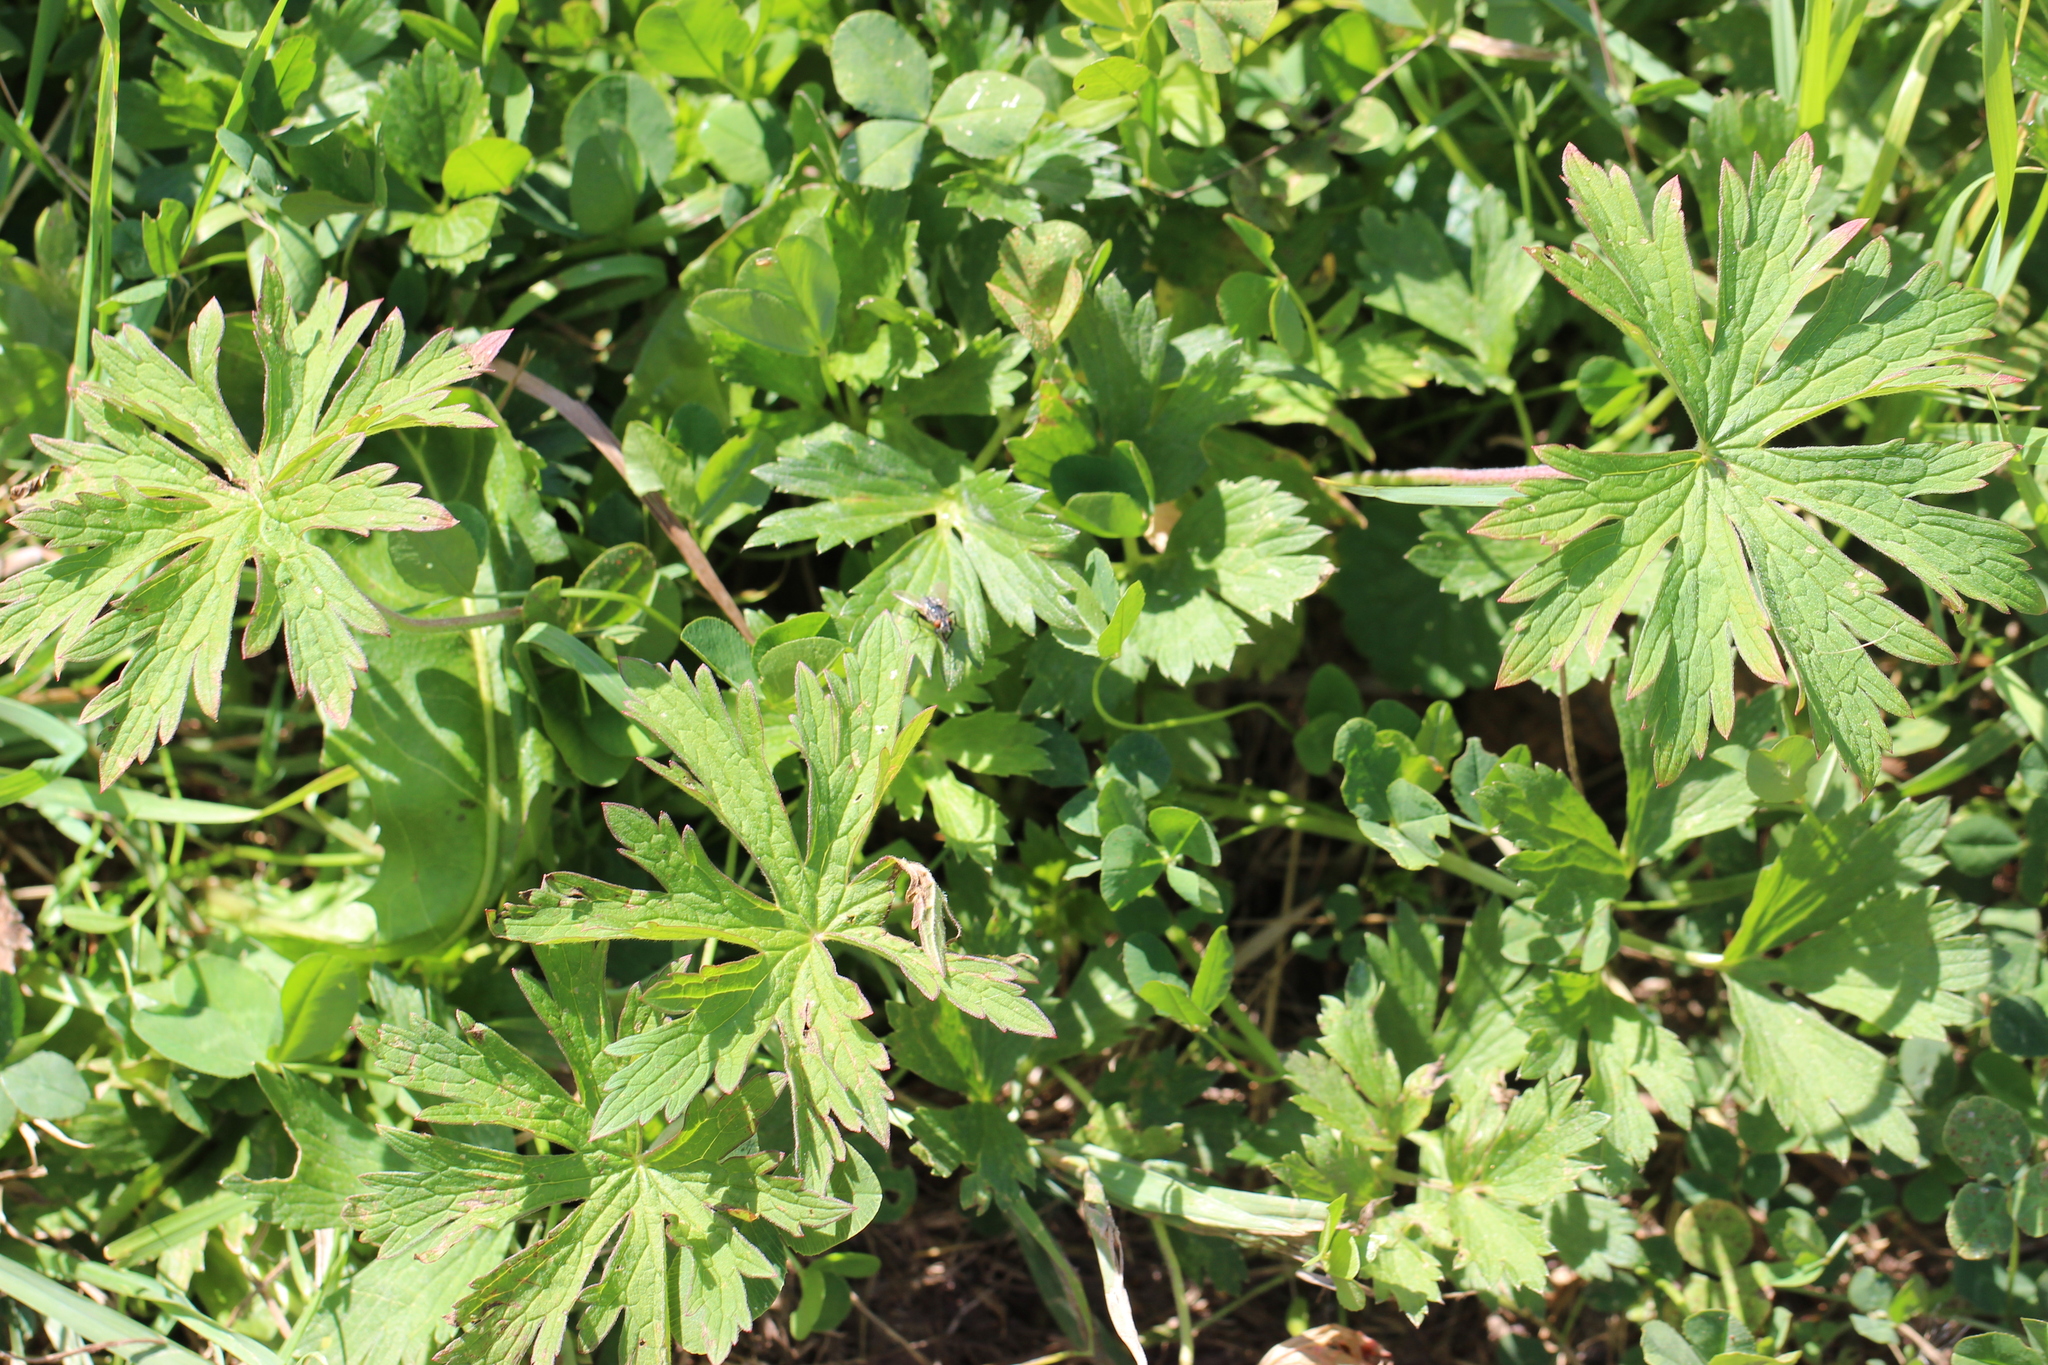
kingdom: Plantae
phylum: Tracheophyta
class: Magnoliopsida
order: Geraniales
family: Geraniaceae
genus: Geranium
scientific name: Geranium pratense
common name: Meadow crane's-bill
